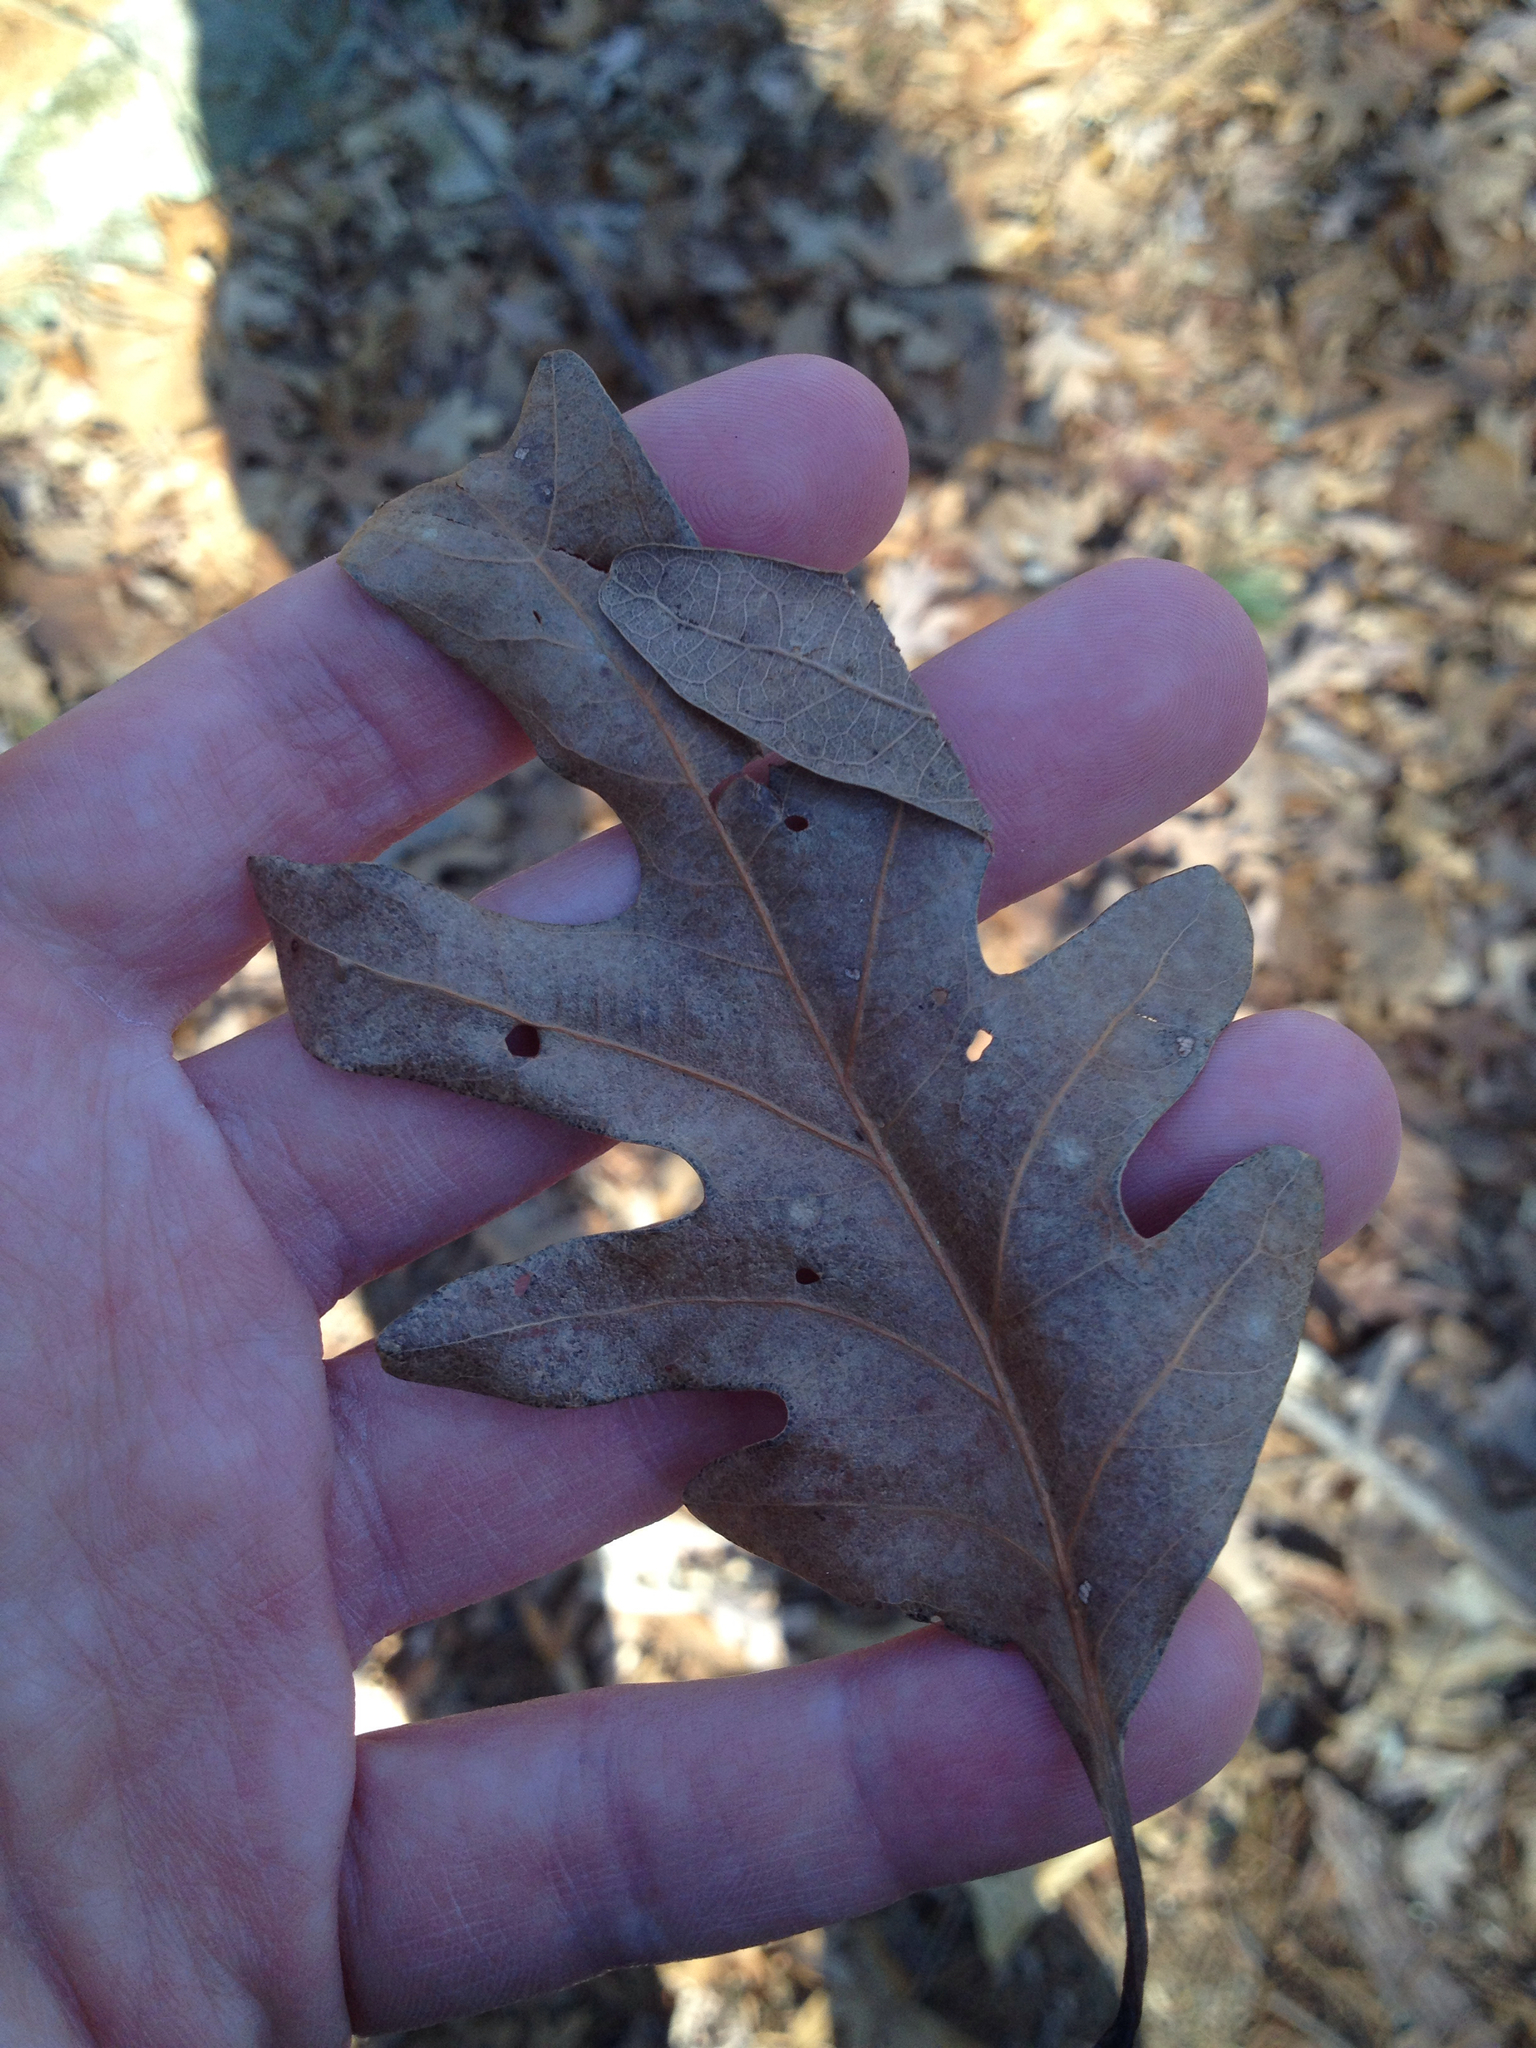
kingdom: Plantae
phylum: Tracheophyta
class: Magnoliopsida
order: Fagales
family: Fagaceae
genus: Quercus
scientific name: Quercus alba
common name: White oak
